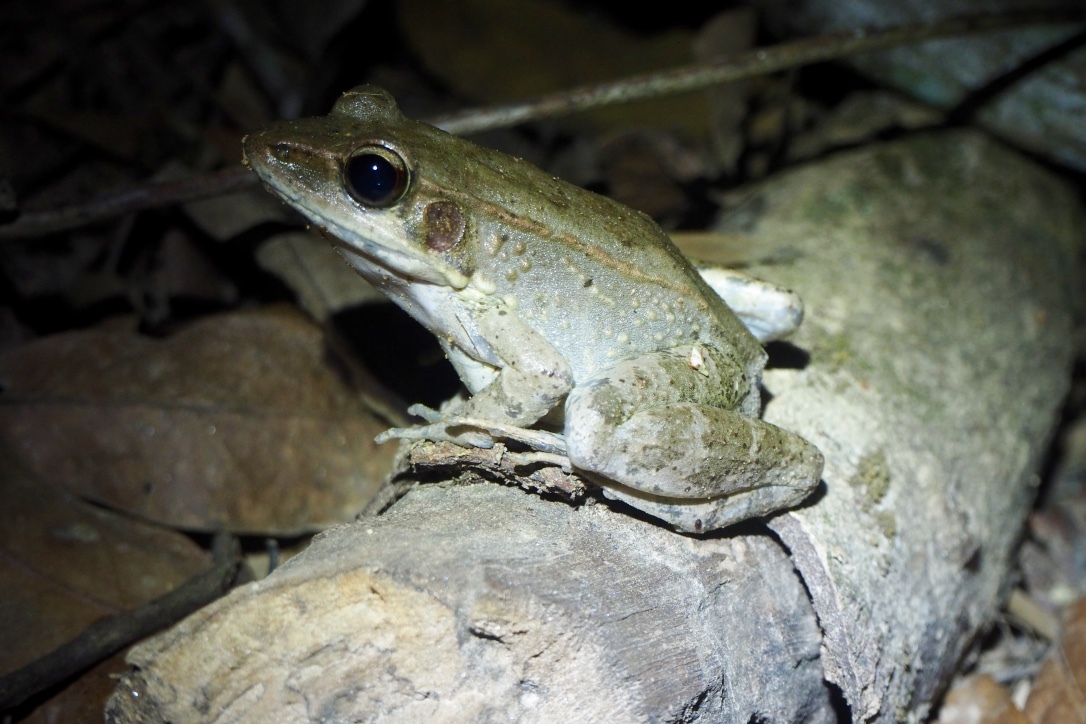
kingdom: Animalia
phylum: Chordata
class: Amphibia
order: Anura
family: Ranidae
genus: Papurana
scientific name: Papurana daemeli
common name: Arhem rana
